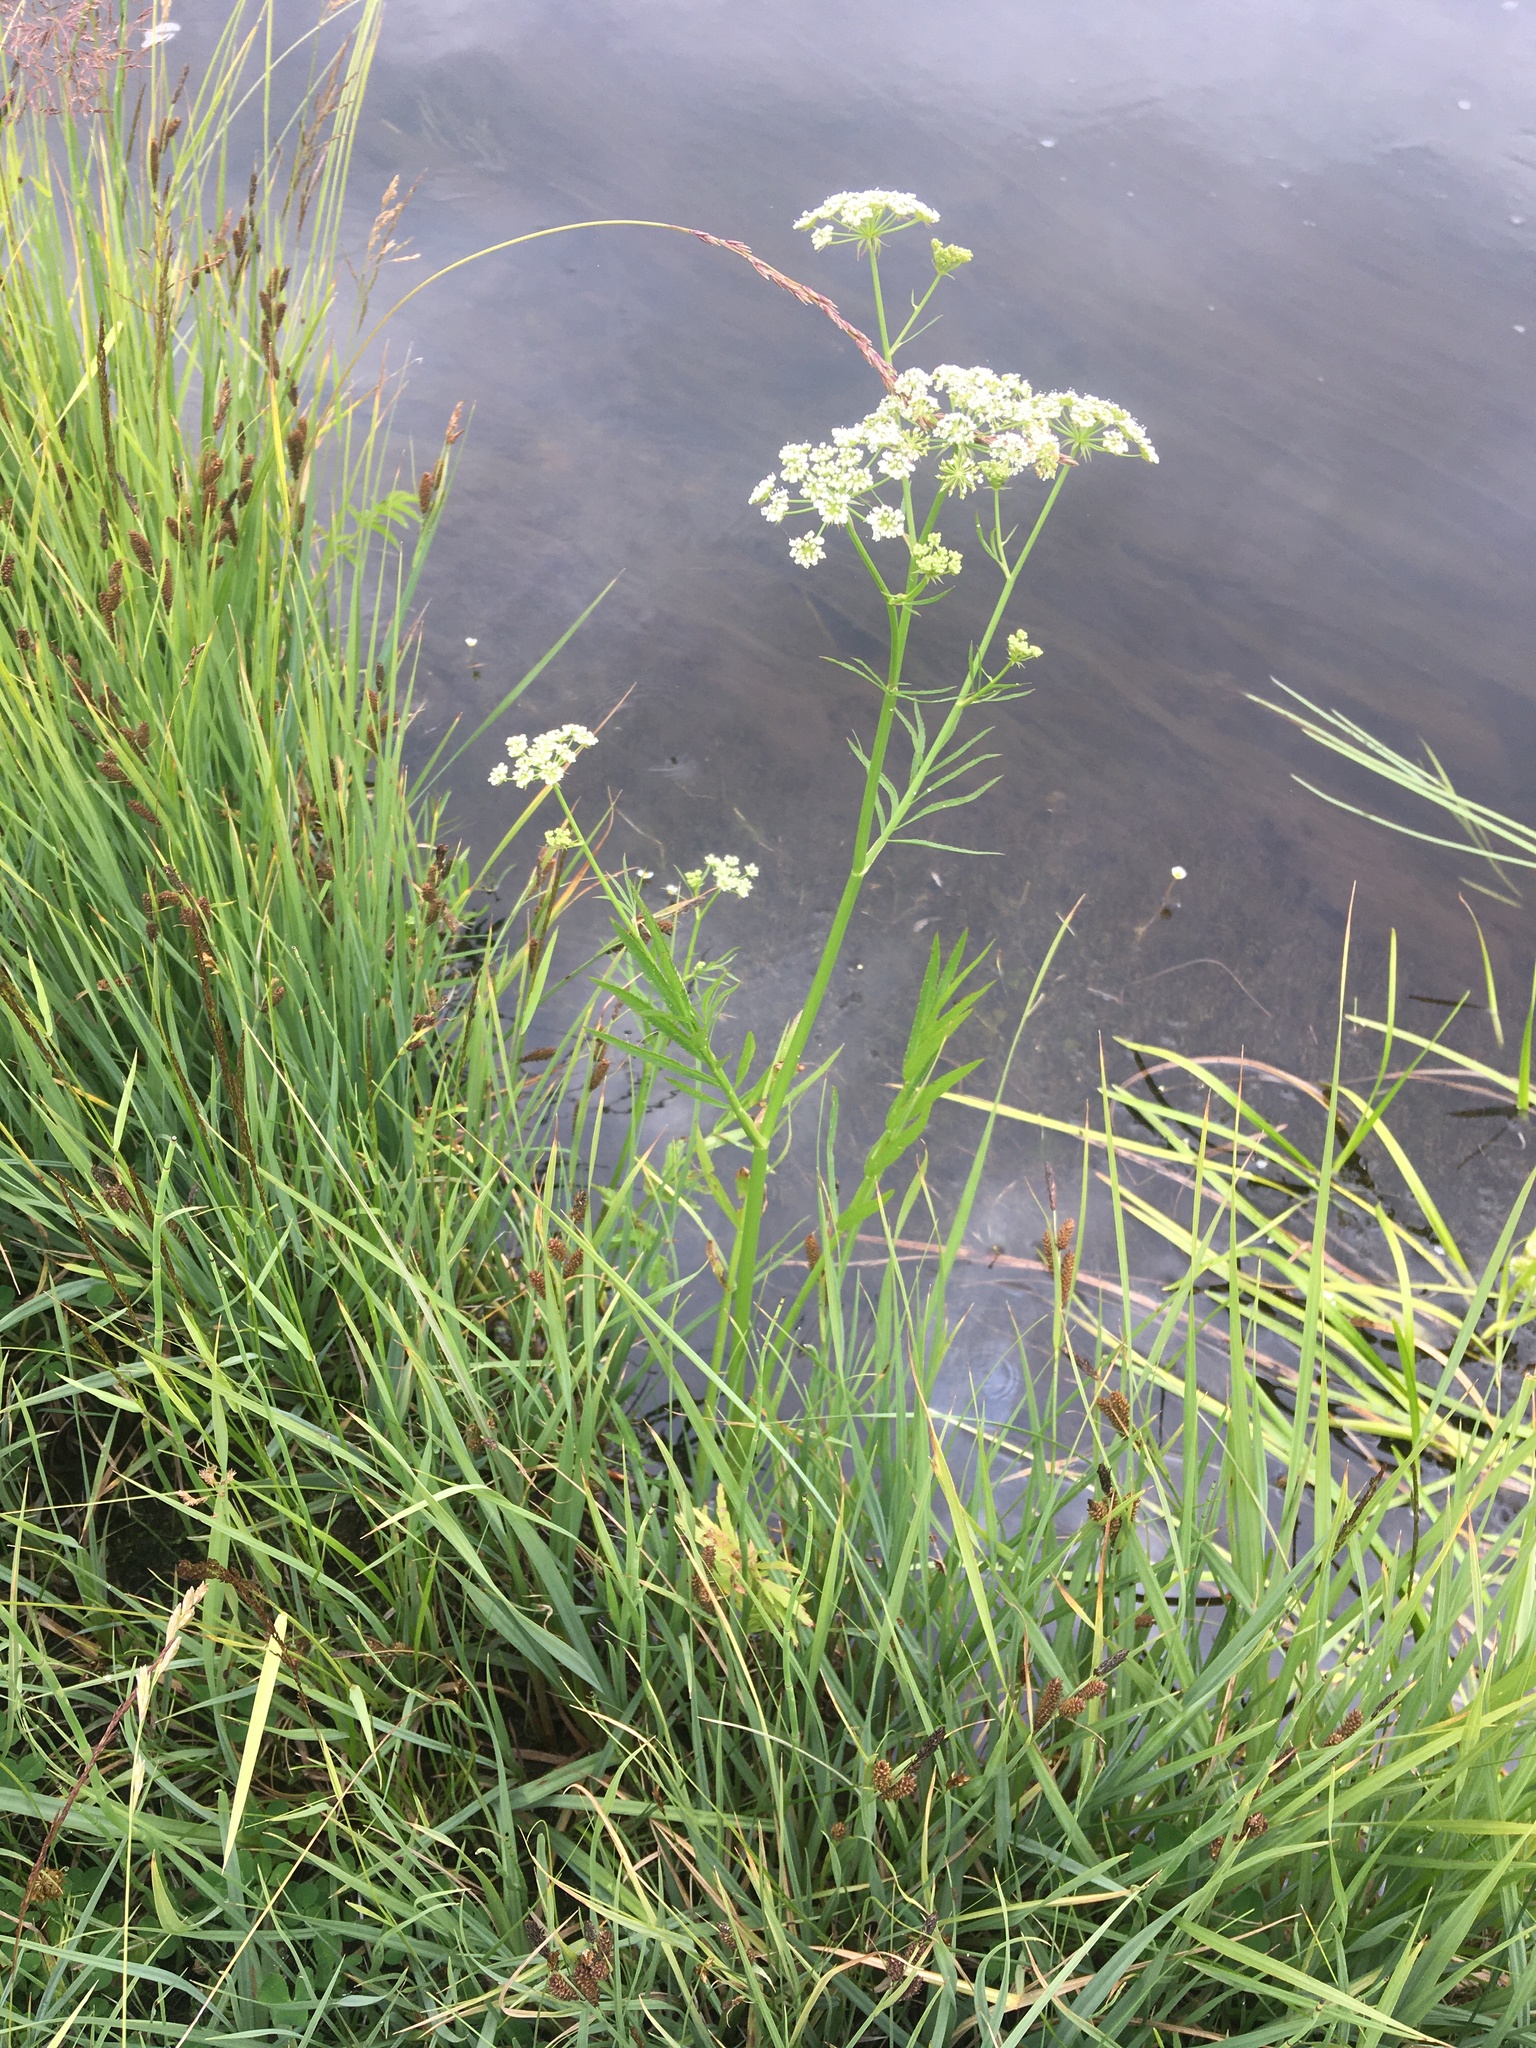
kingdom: Plantae
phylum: Tracheophyta
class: Magnoliopsida
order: Apiales
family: Apiaceae
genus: Sium
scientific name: Sium suave
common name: Hemlock water-parsnip
